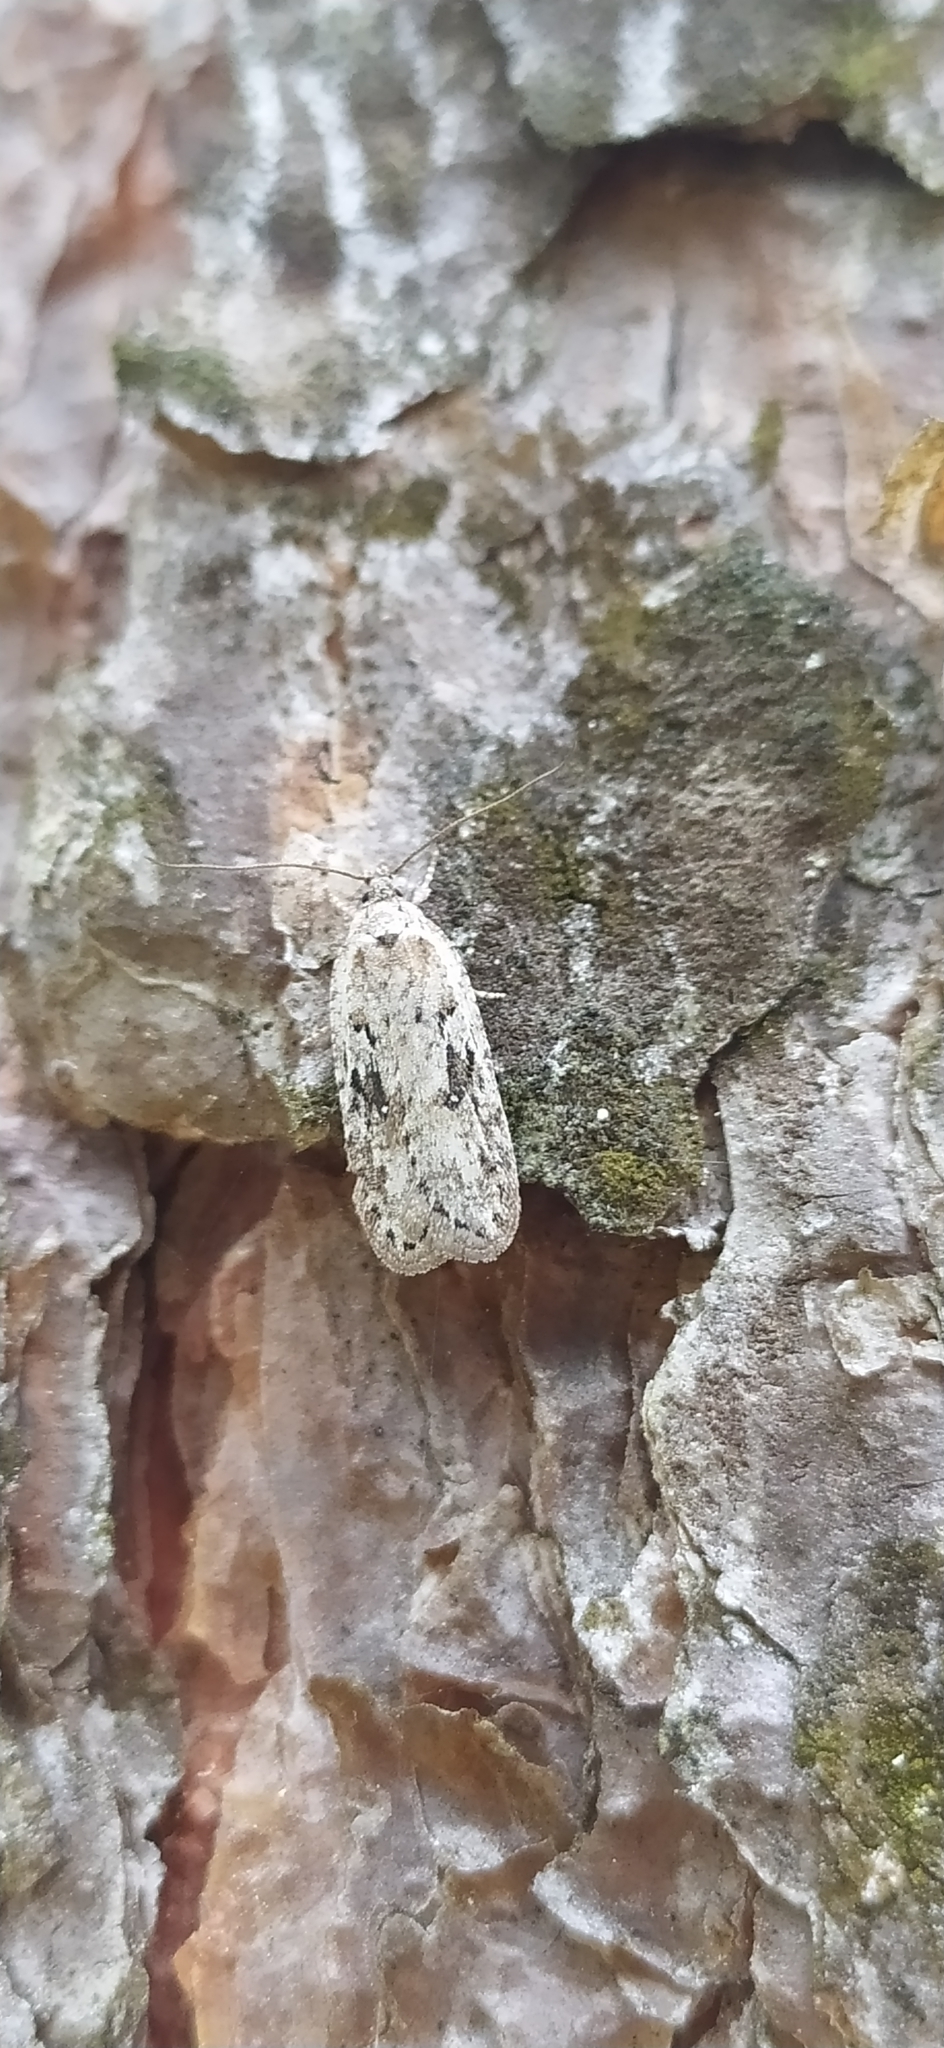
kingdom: Animalia
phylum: Arthropoda
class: Insecta
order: Lepidoptera
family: Depressariidae
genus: Exaeretia
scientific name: Exaeretia ciniflonella
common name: Scotch flat-body
